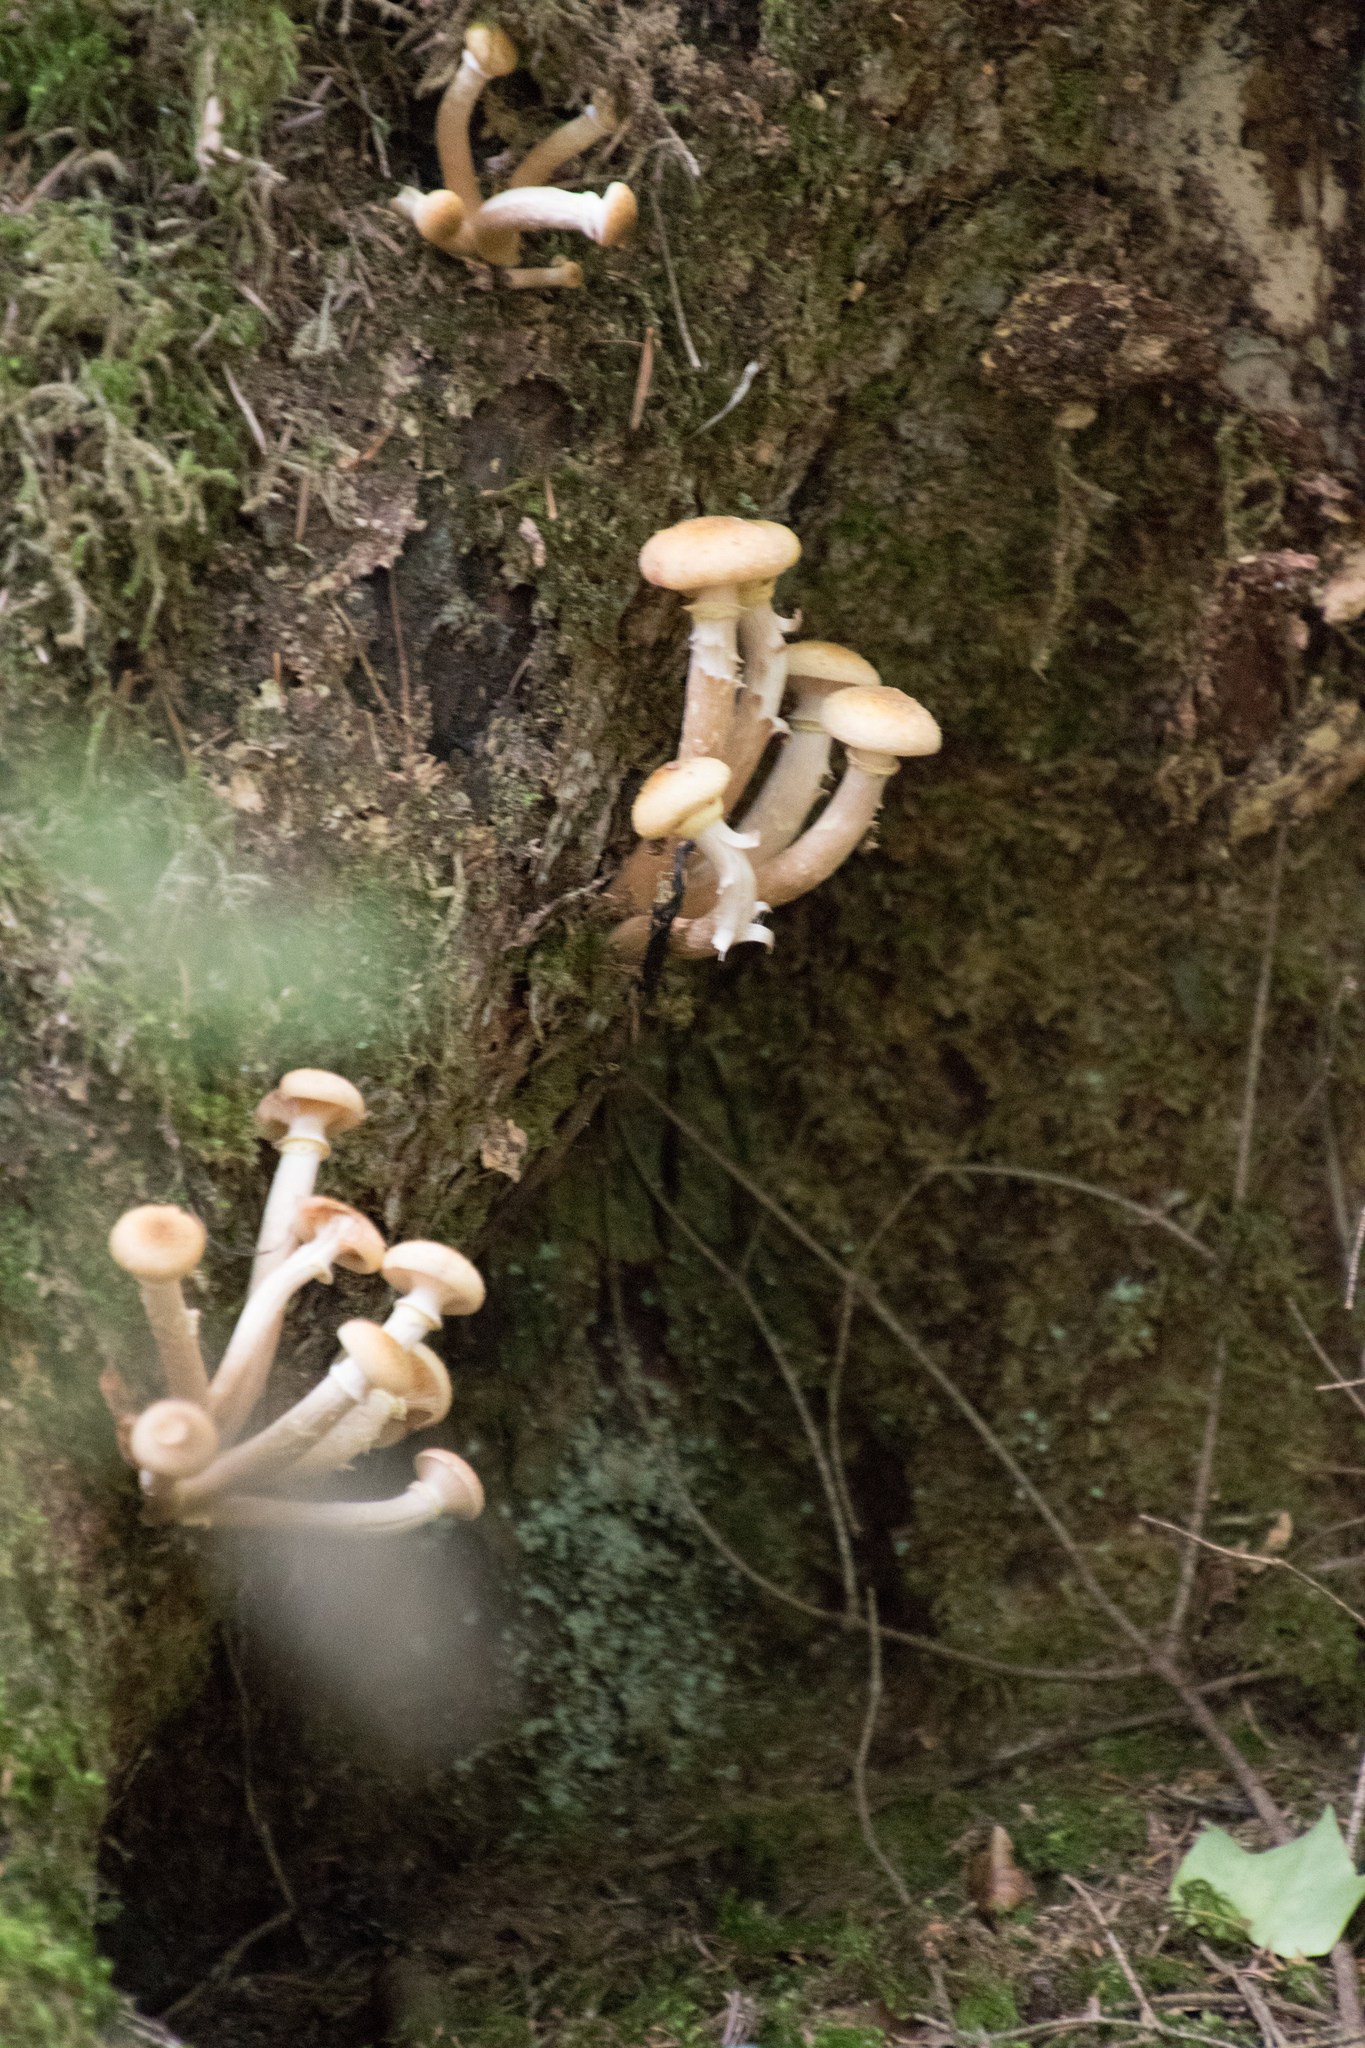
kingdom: Fungi
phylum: Basidiomycota
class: Agaricomycetes
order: Agaricales
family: Physalacriaceae
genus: Armillaria
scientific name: Armillaria mellea
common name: Honey fungus
